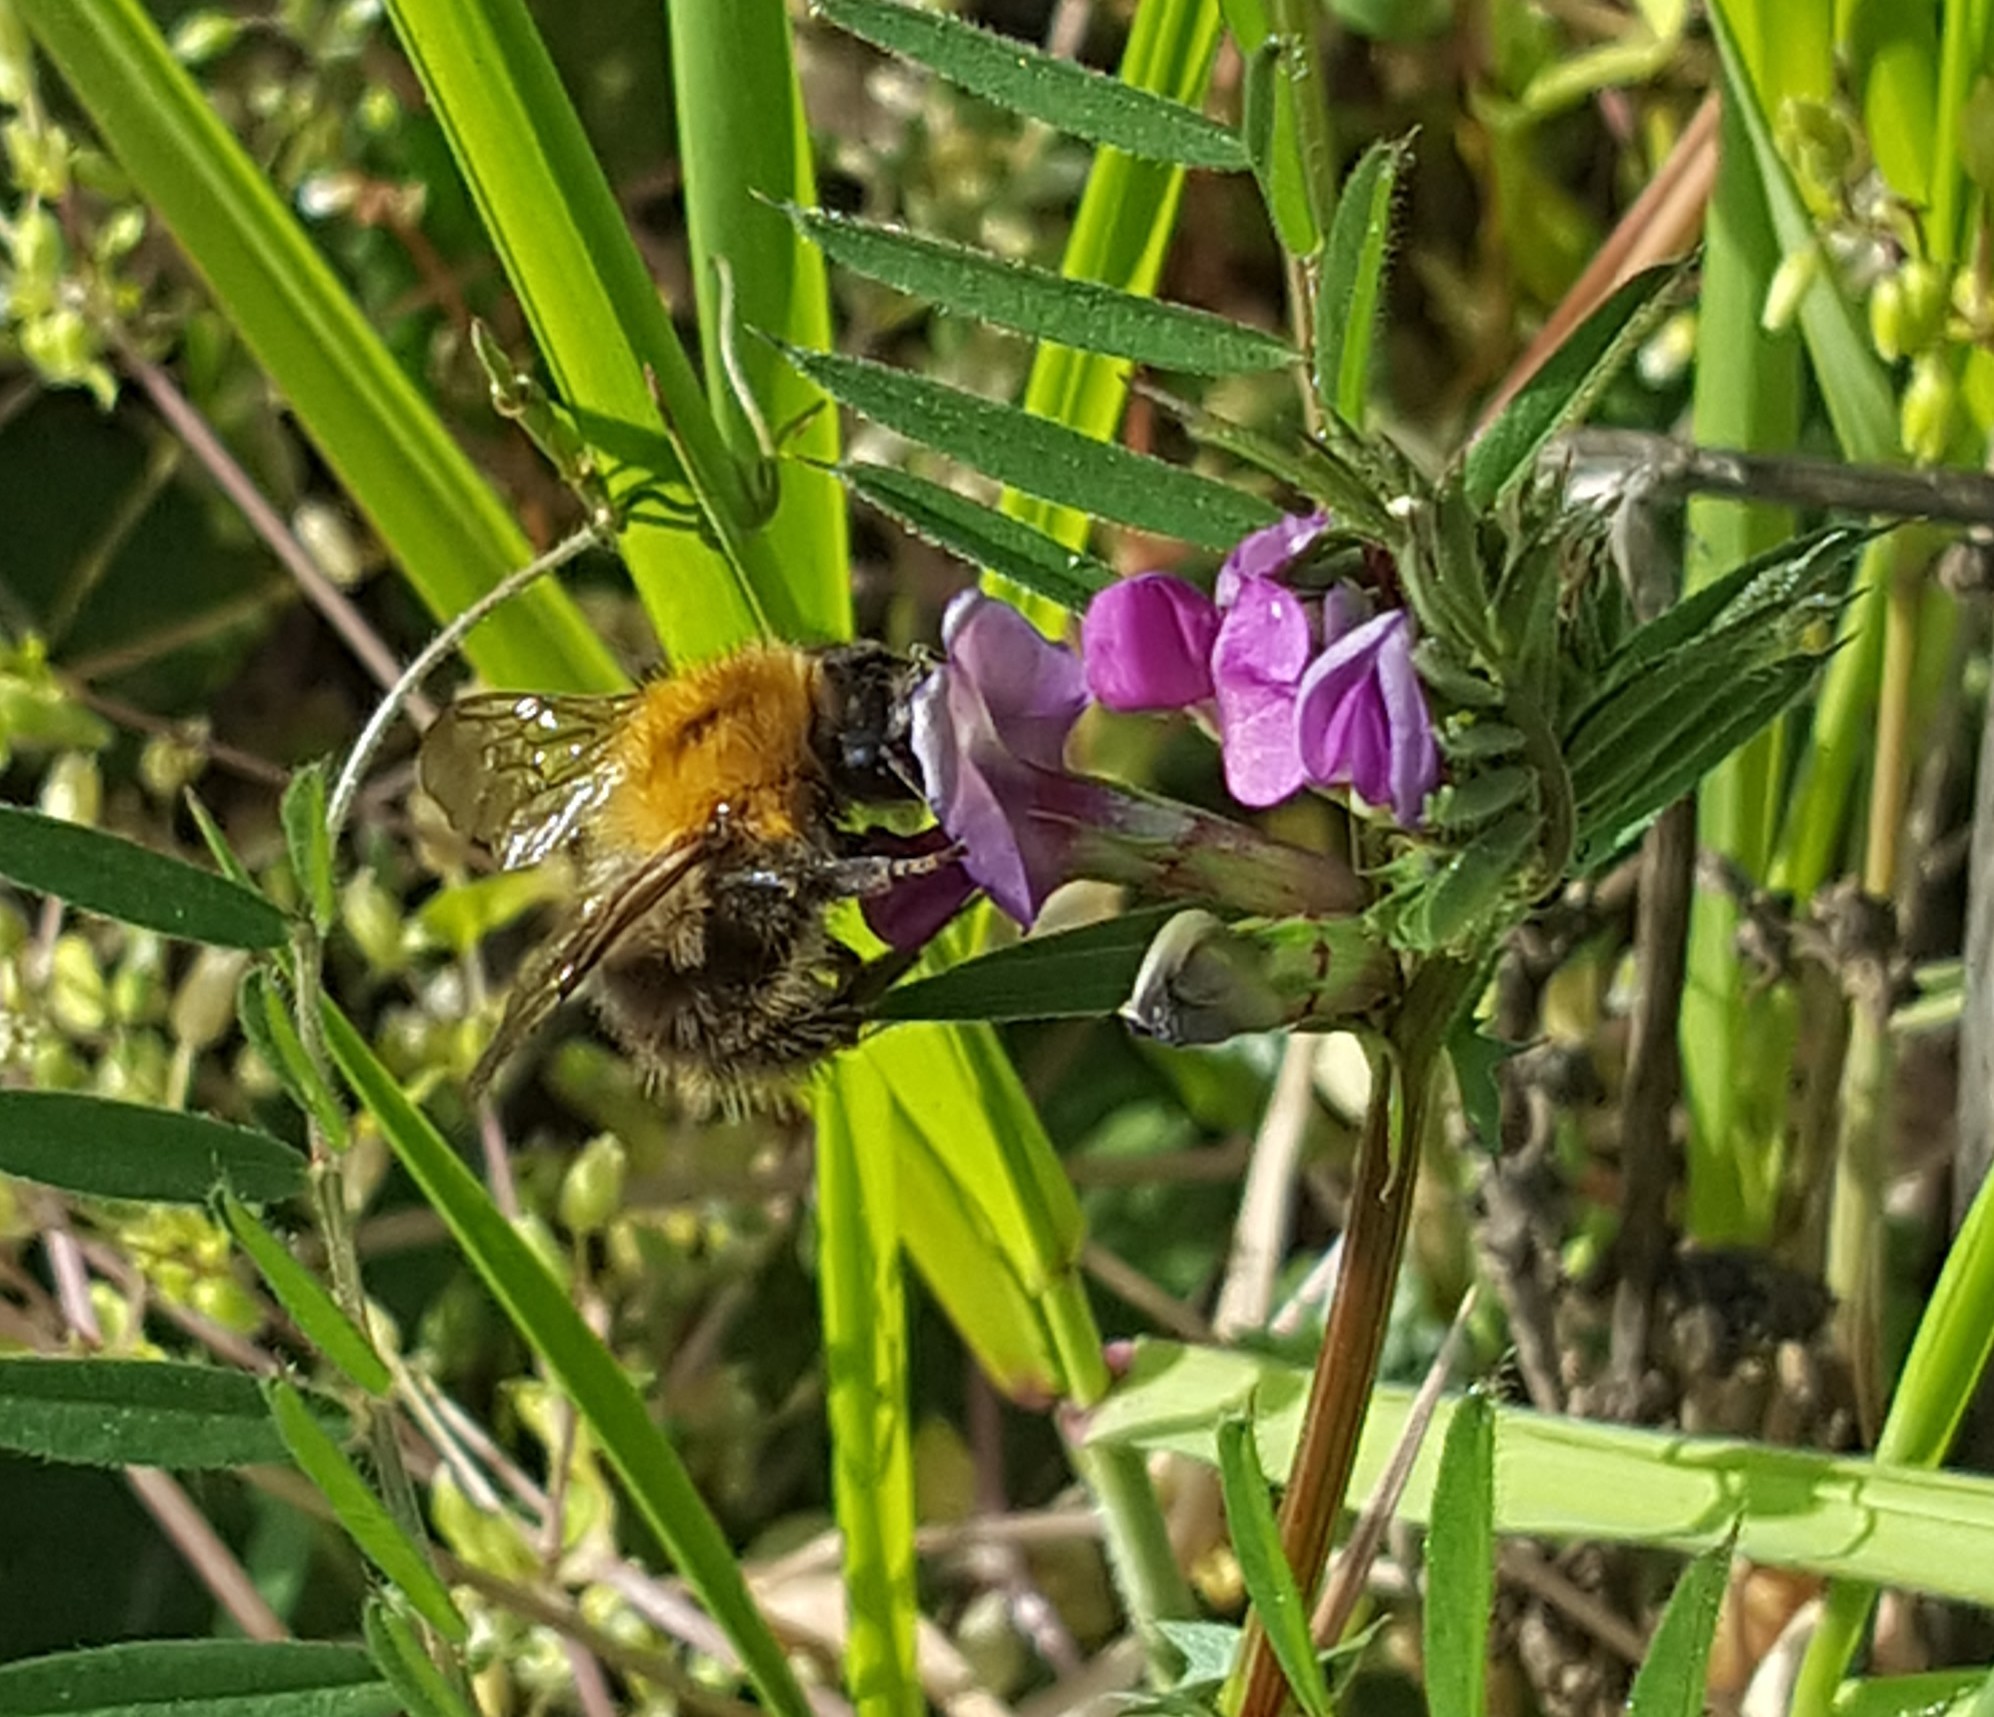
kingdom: Animalia
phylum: Arthropoda
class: Insecta
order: Hymenoptera
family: Apidae
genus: Bombus
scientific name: Bombus pascuorum
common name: Common carder bee
